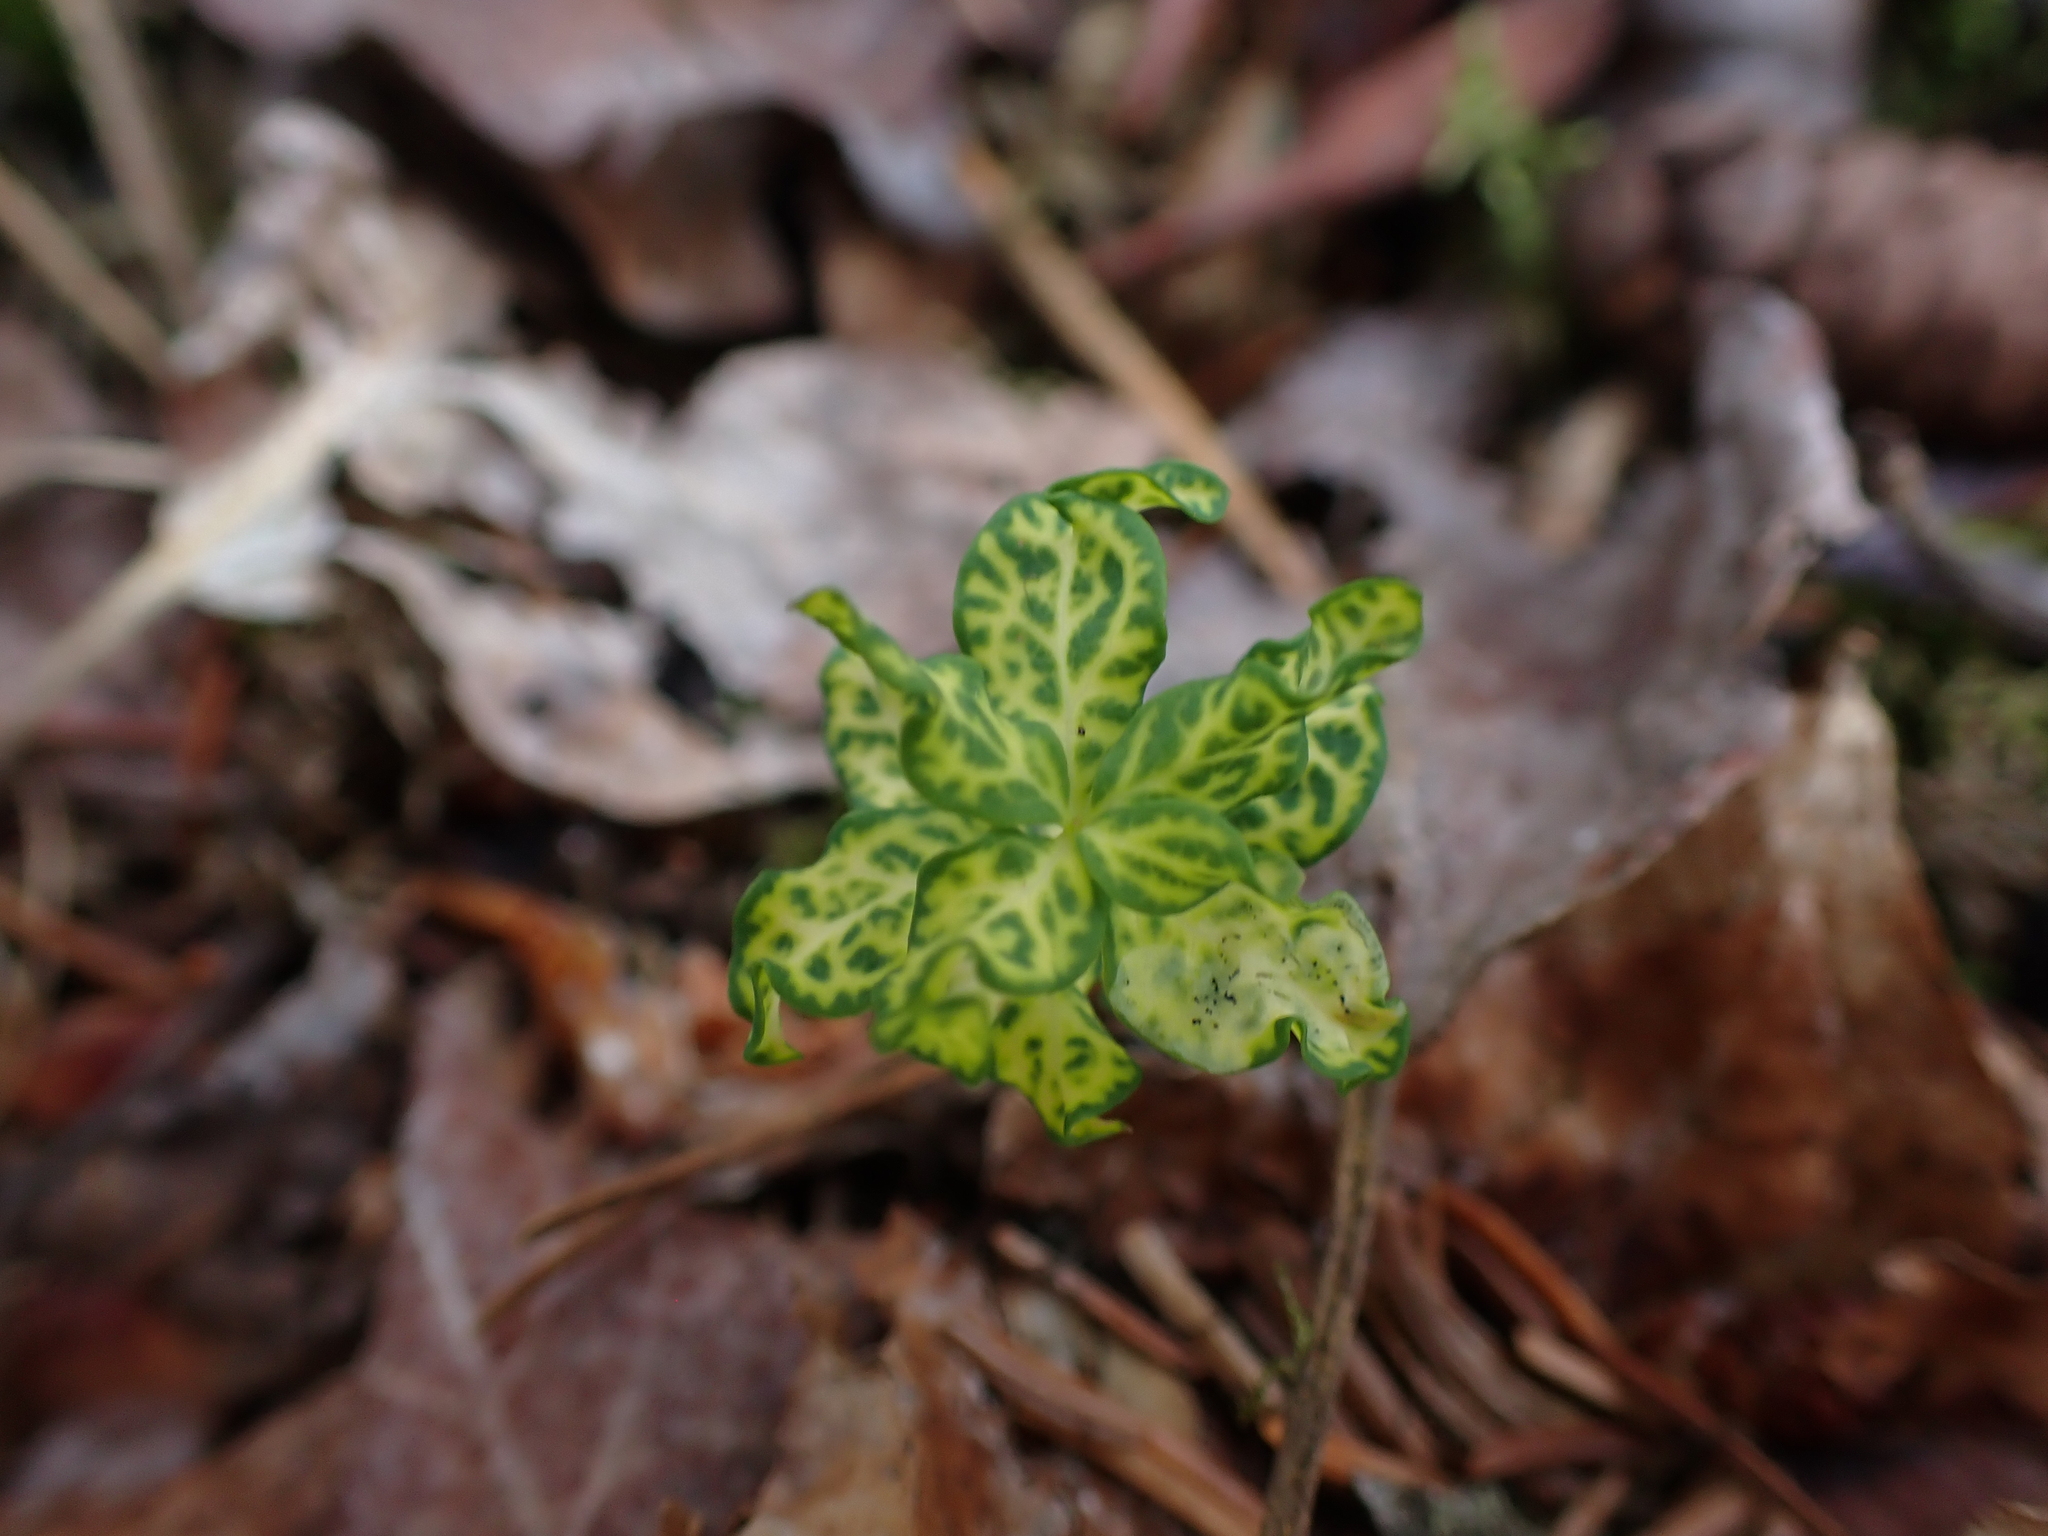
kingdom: Plantae
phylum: Tracheophyta
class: Magnoliopsida
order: Santalales
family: Comandraceae
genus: Geocaulon
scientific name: Geocaulon lividum
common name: Earthberry
